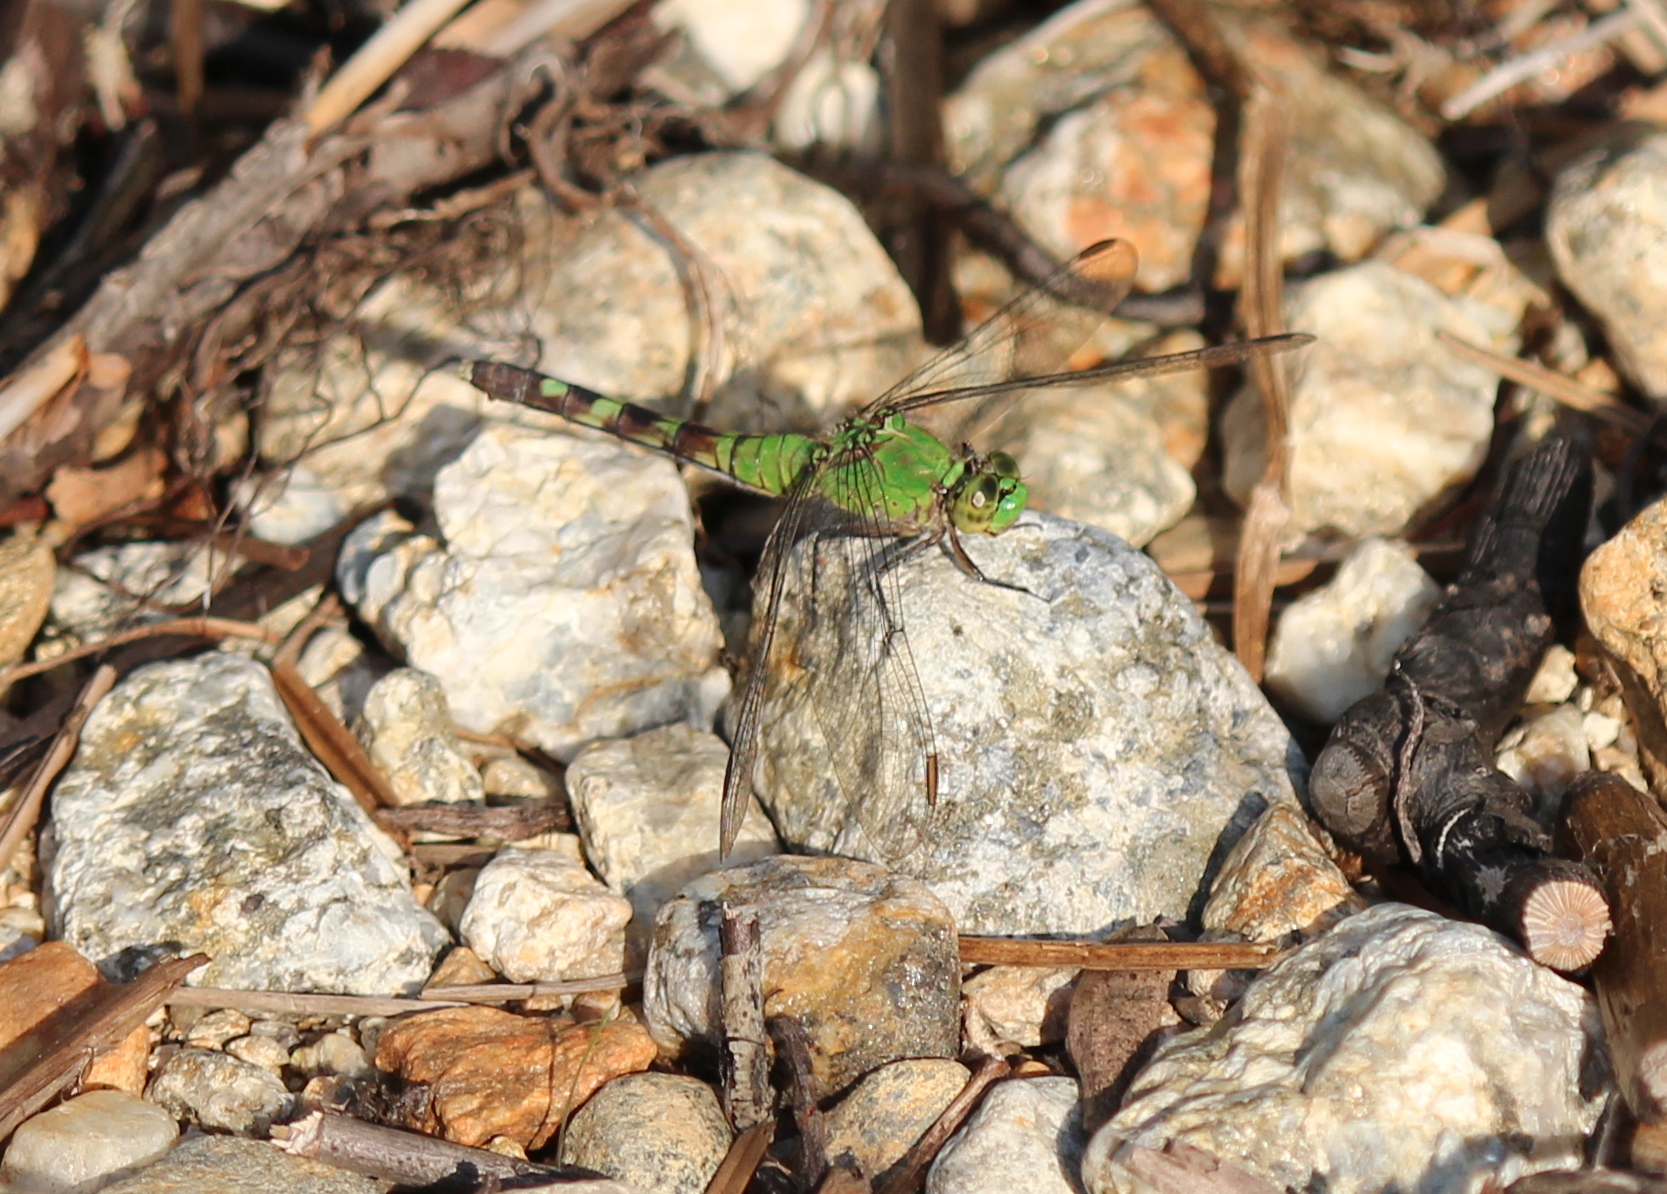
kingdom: Animalia
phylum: Arthropoda
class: Insecta
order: Odonata
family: Libellulidae
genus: Erythemis
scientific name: Erythemis simplicicollis
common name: Eastern pondhawk
